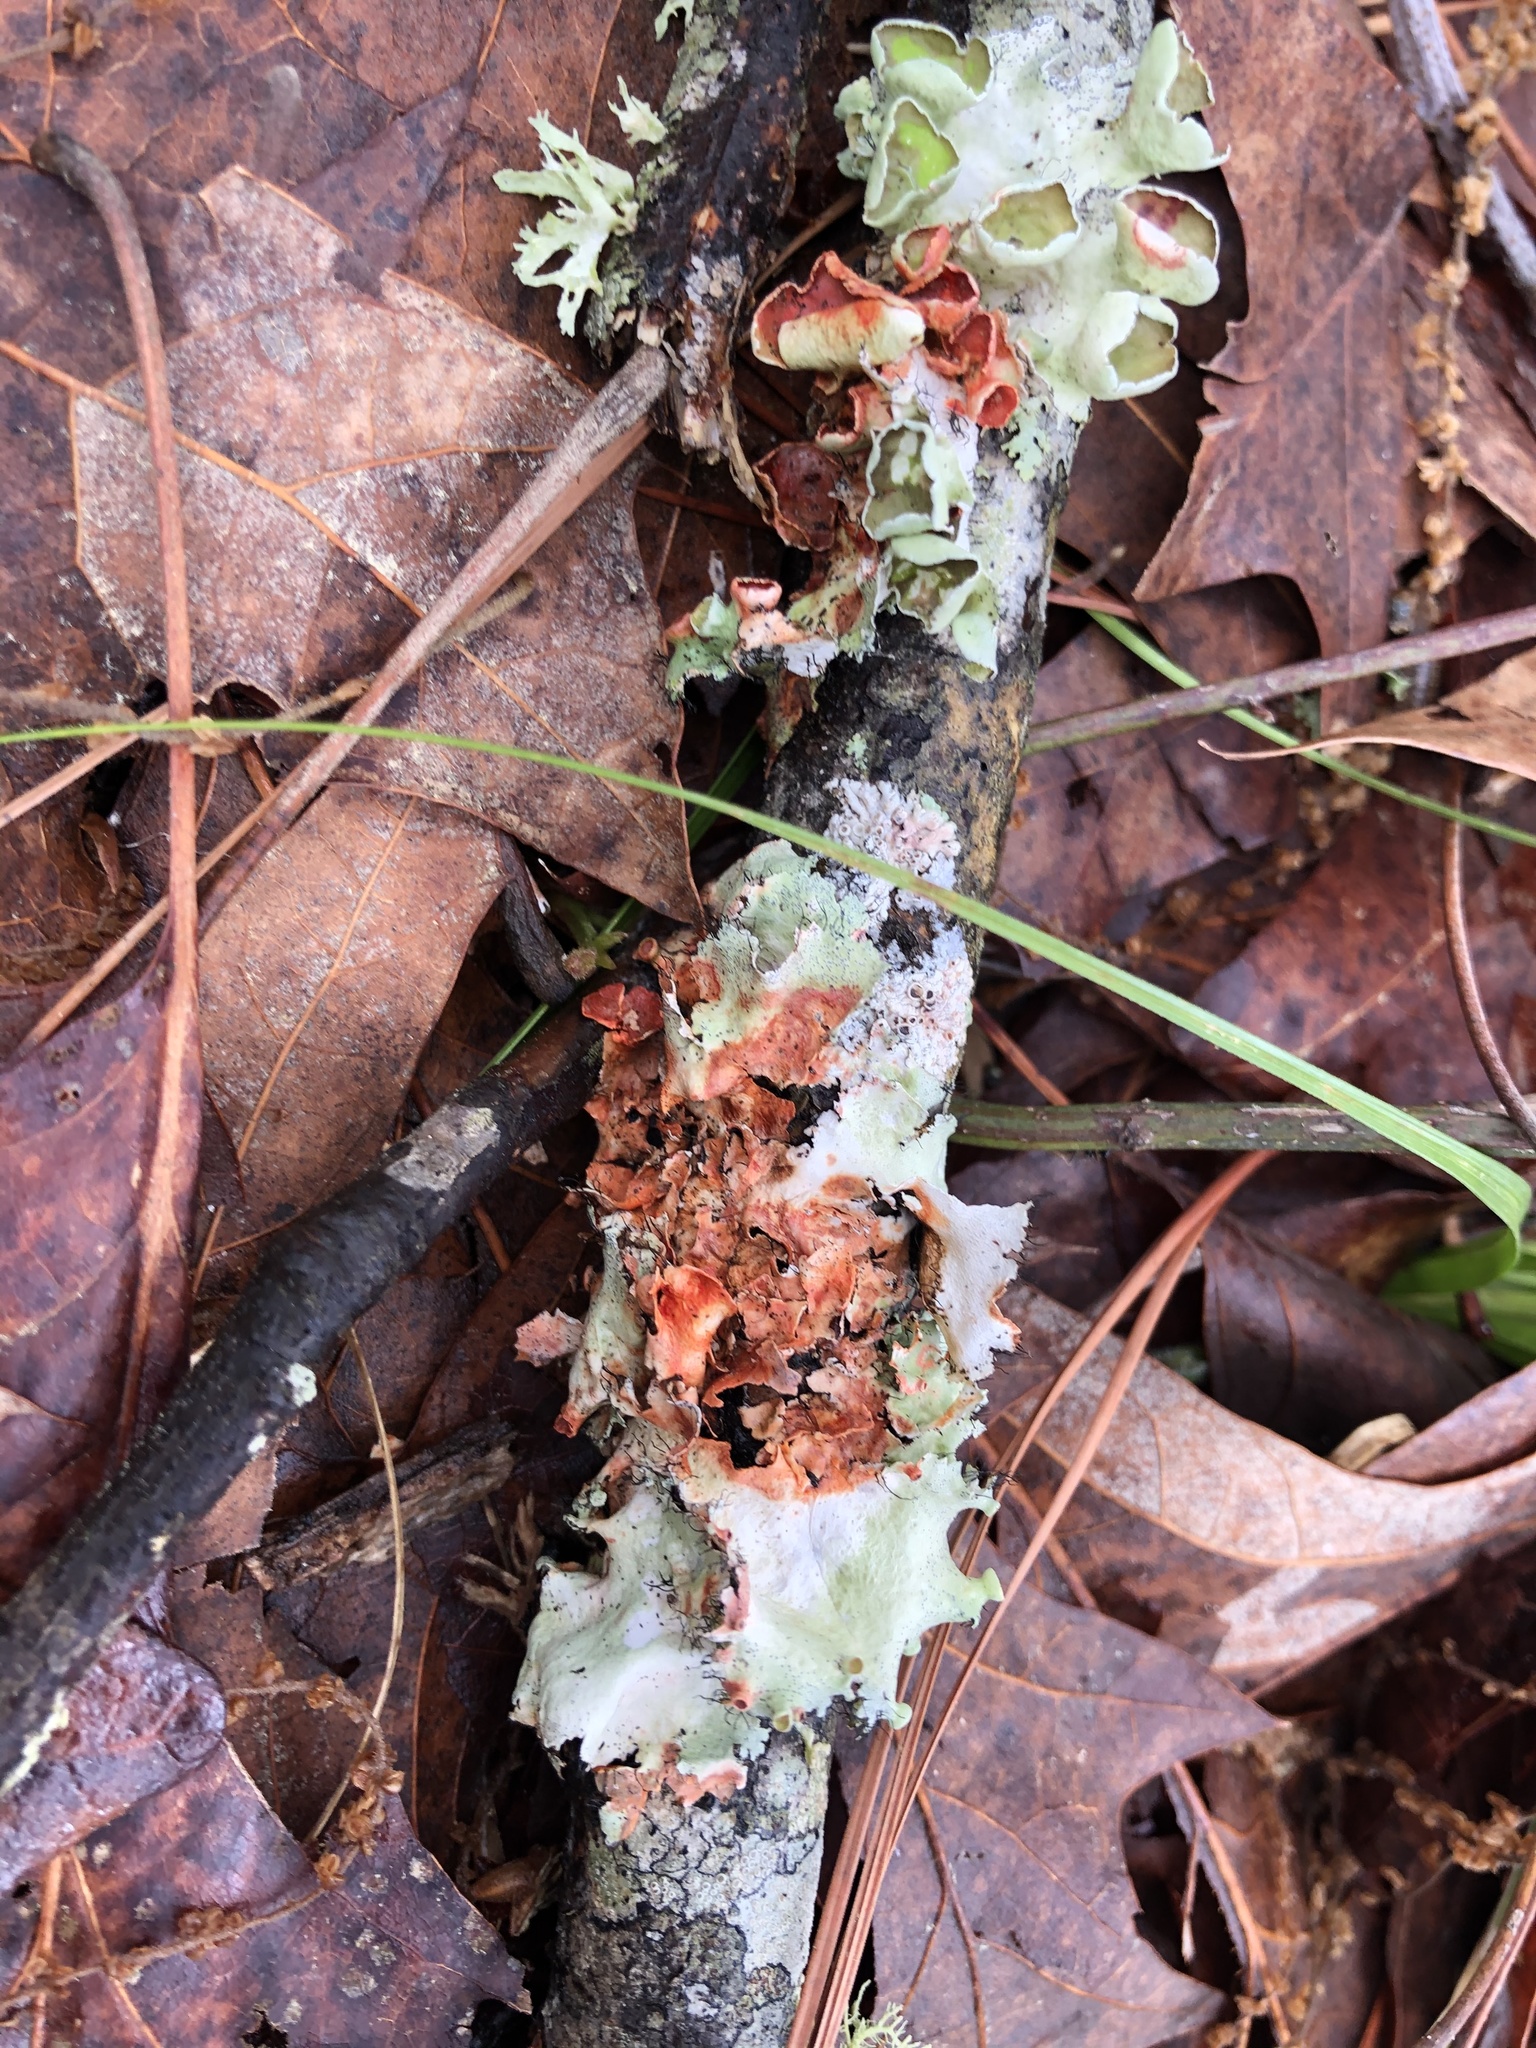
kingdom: Fungi
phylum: Ascomycota
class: Lecanoromycetes
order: Lecanorales
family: Parmeliaceae
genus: Parmotrema
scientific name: Parmotrema perforatum
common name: Perforated ruffle lichen
